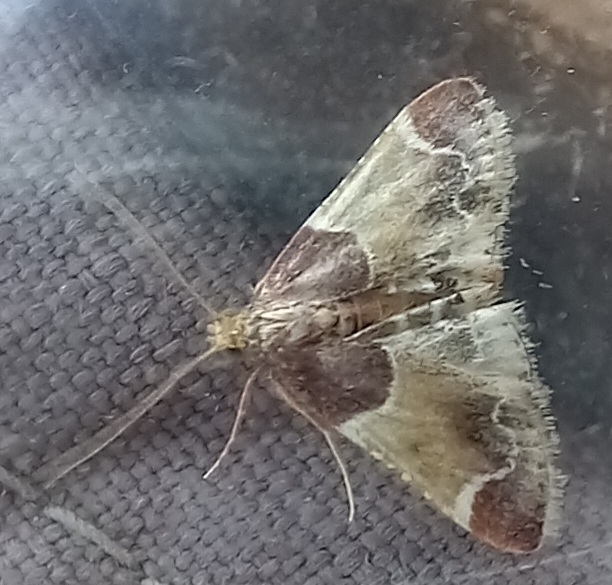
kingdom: Animalia
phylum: Arthropoda
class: Insecta
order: Lepidoptera
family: Pyralidae
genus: Pyralis
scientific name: Pyralis farinalis
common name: Meal moth
